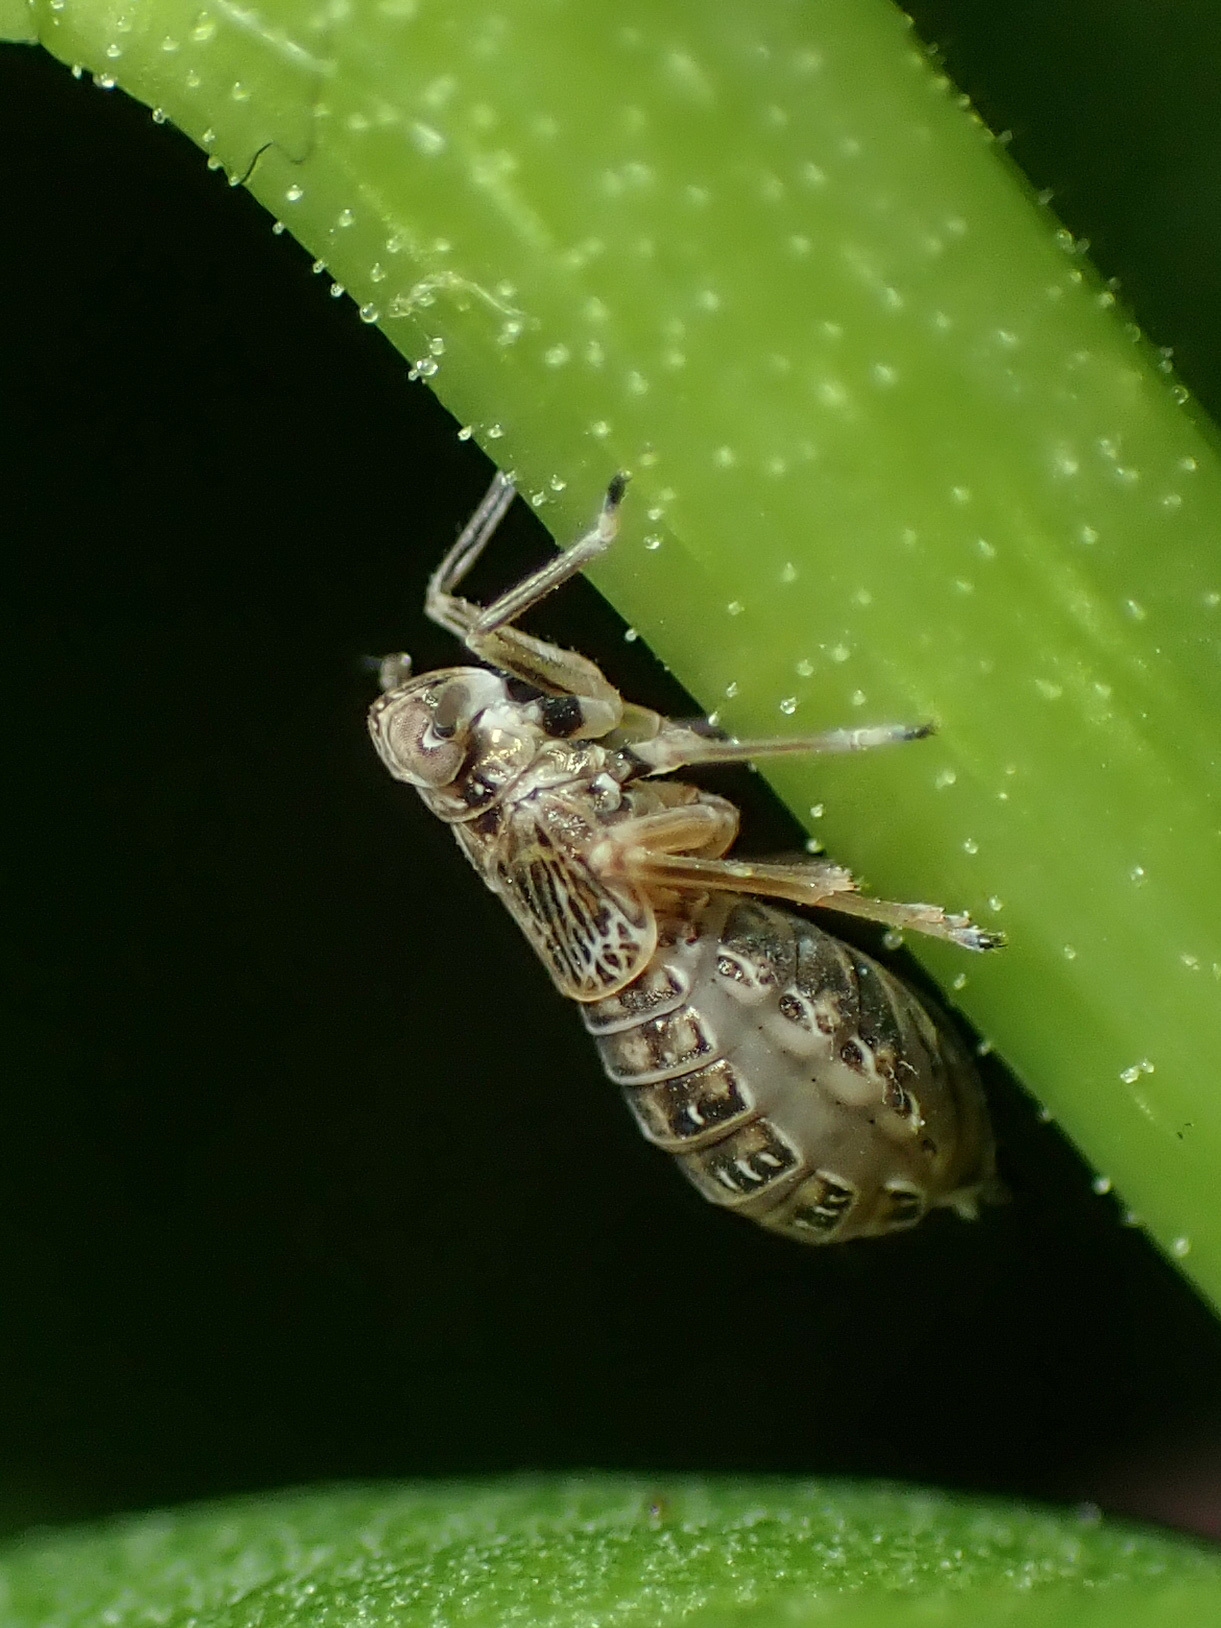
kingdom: Animalia
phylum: Arthropoda
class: Insecta
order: Hemiptera
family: Delphacidae
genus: Pissonotus
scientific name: Pissonotus albovenosus
